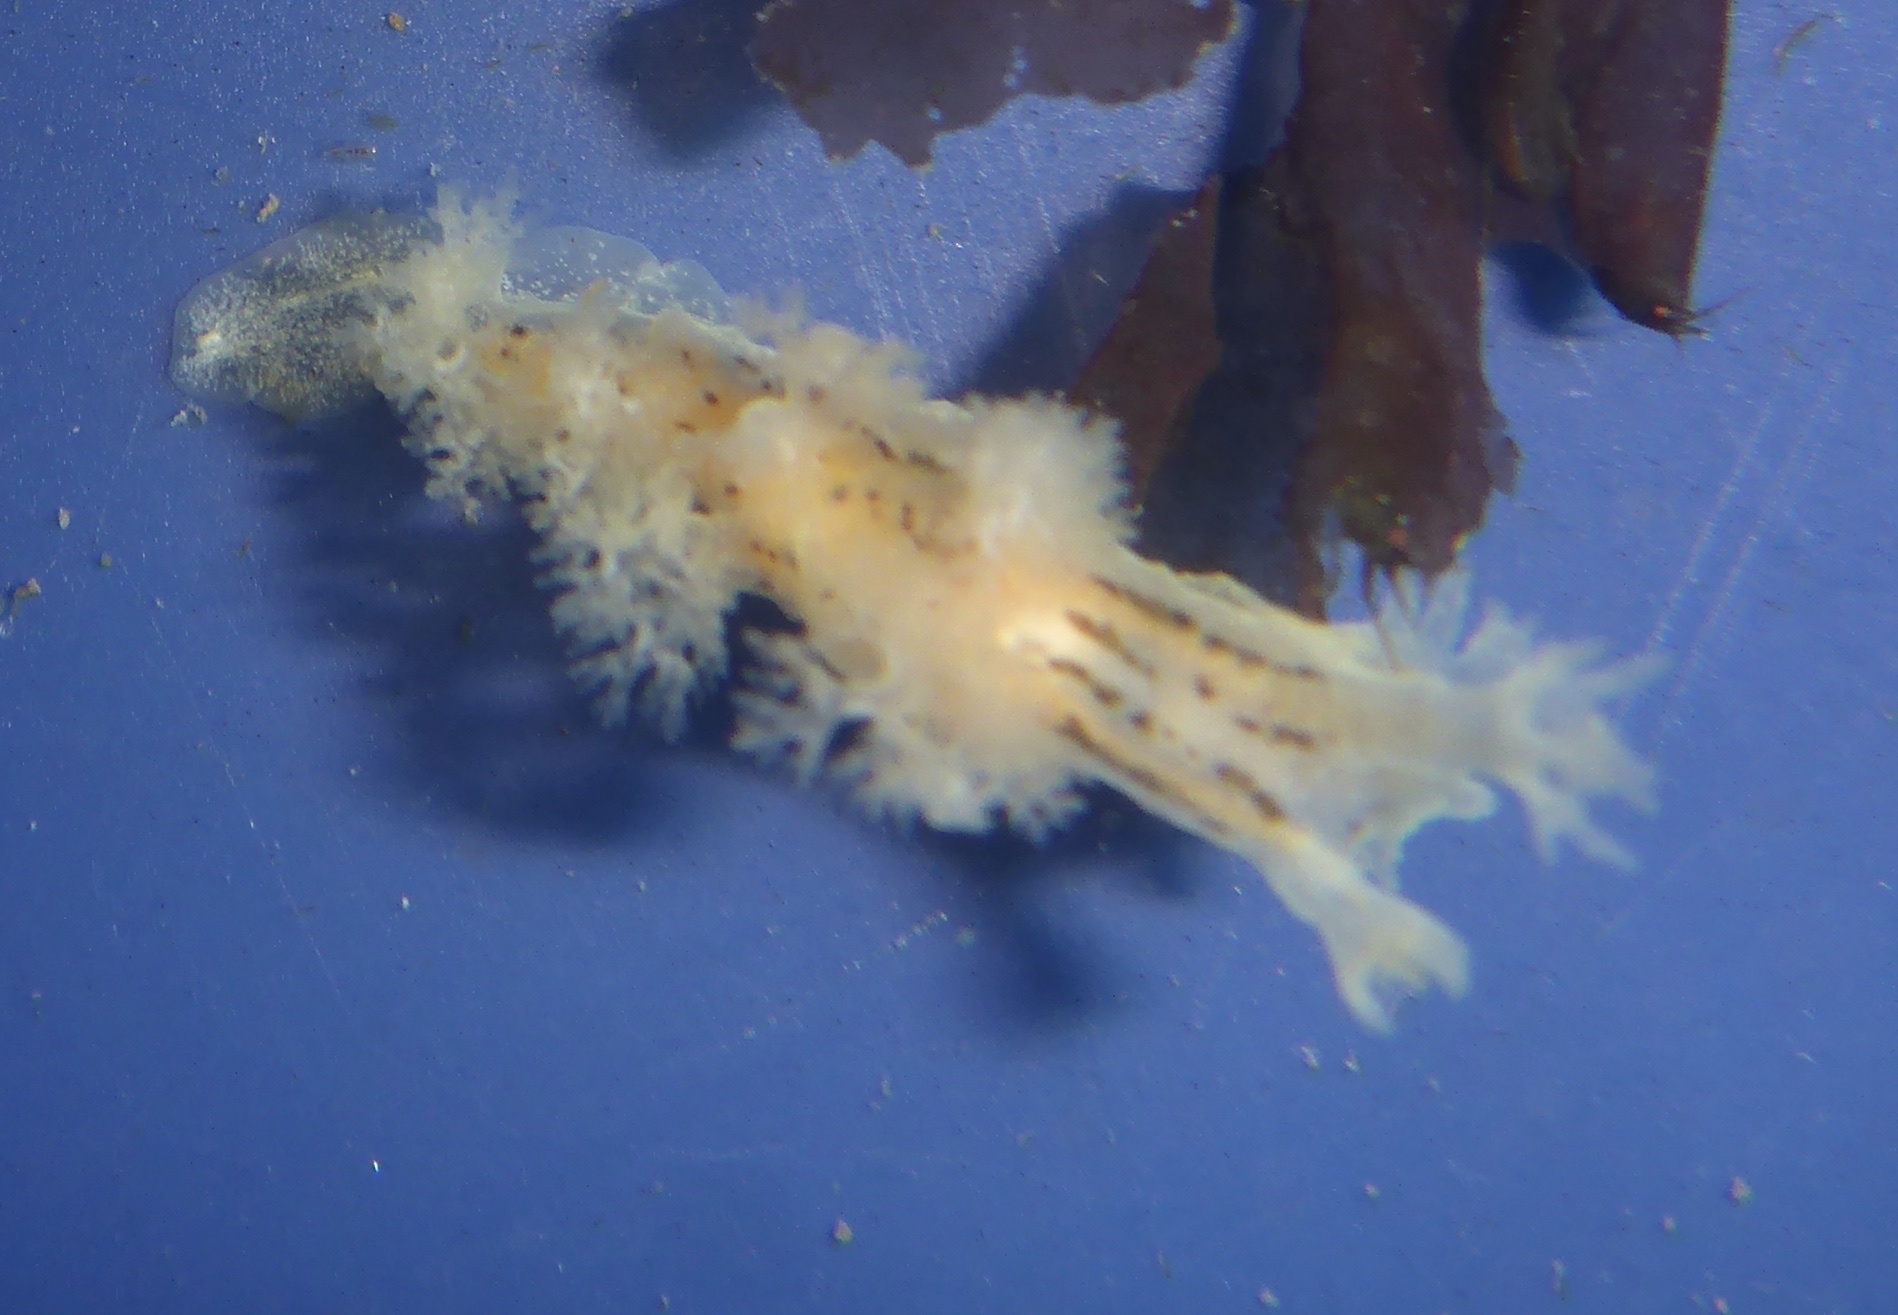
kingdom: Animalia
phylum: Mollusca
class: Gastropoda
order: Nudibranchia
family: Dendronotidae
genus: Dendronotus
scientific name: Dendronotus subramosus
